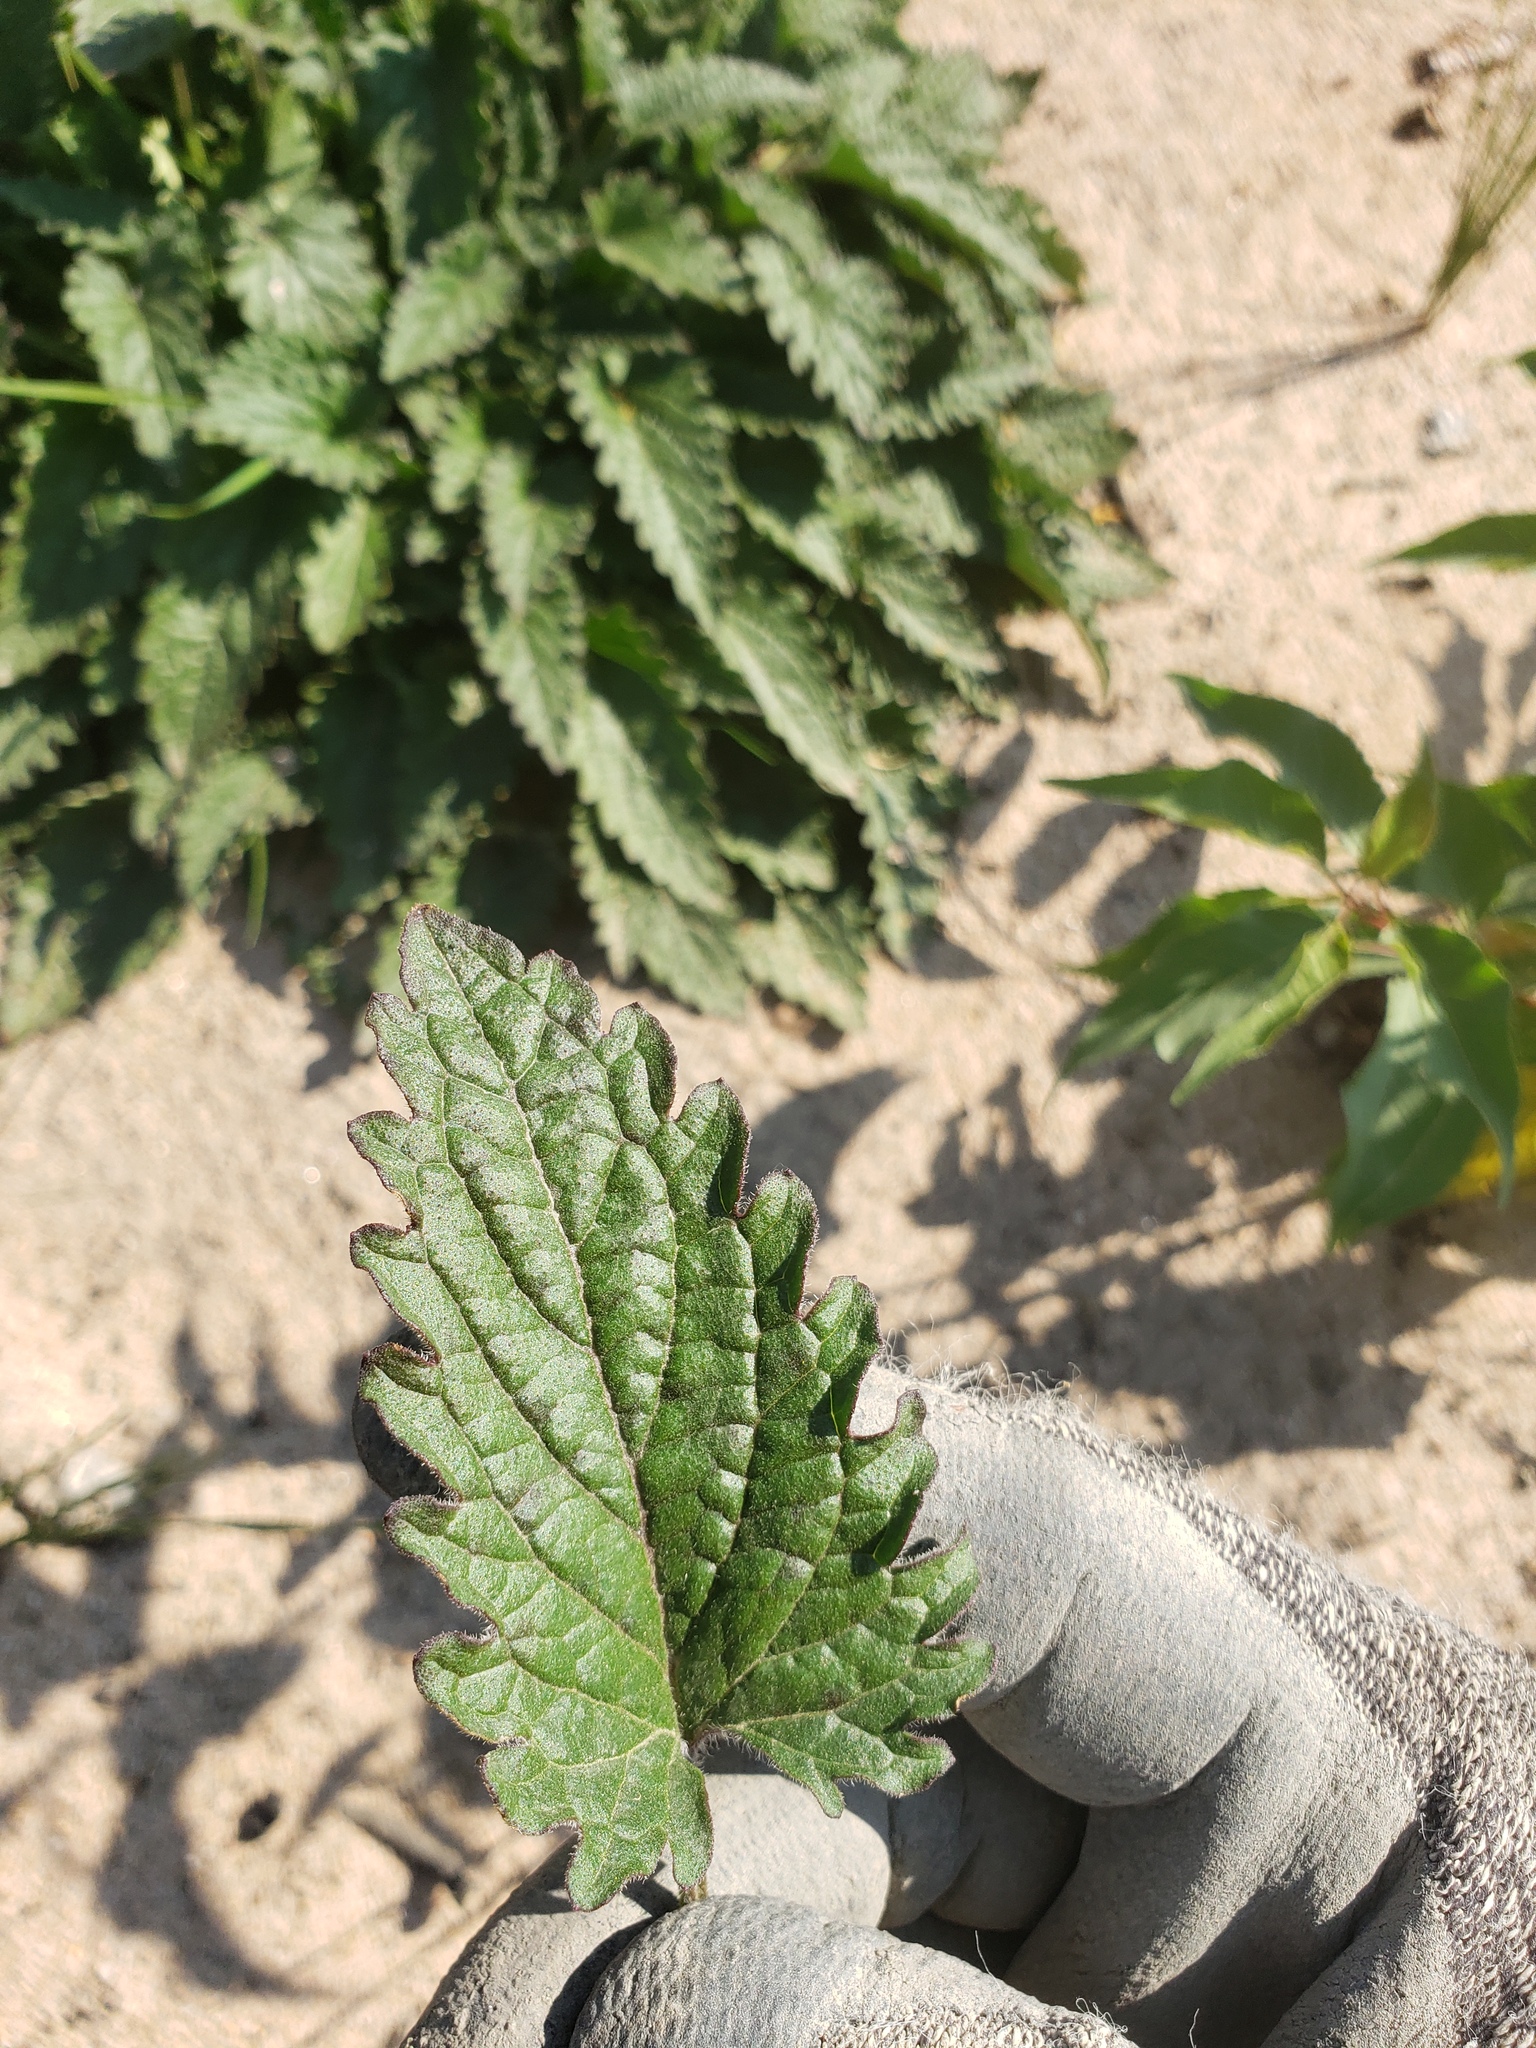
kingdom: Plantae
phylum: Tracheophyta
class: Magnoliopsida
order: Lamiales
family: Lamiaceae
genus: Dracocephalum
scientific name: Dracocephalum parviflorum
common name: American dragonhead
